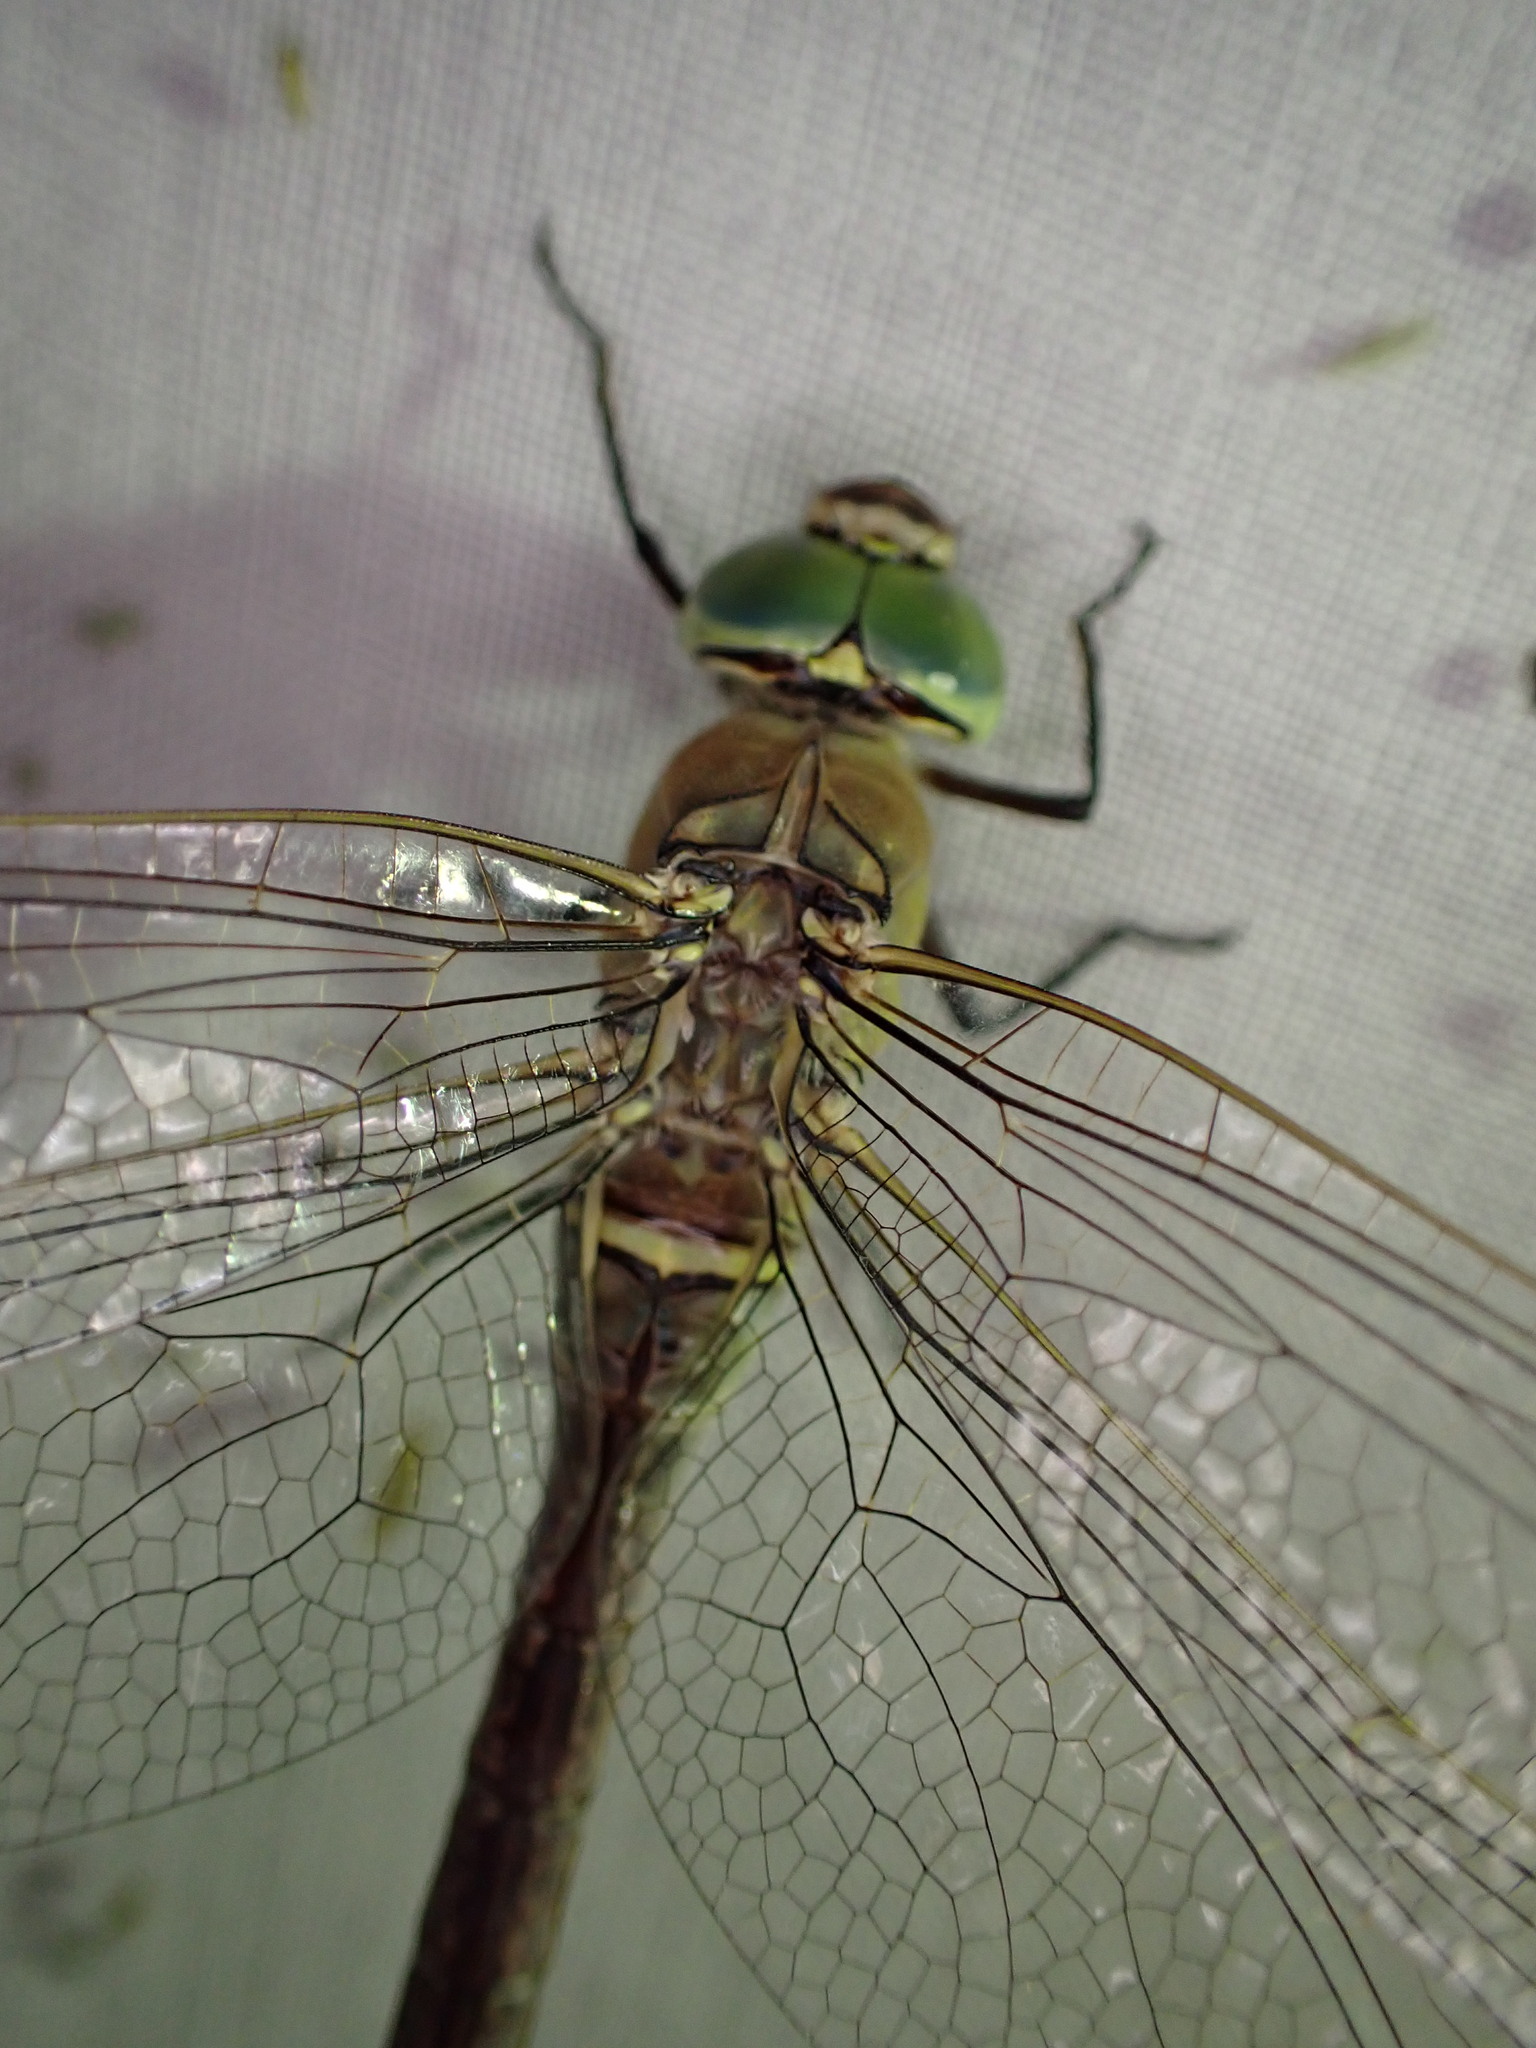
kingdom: Animalia
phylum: Arthropoda
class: Insecta
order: Odonata
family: Aeshnidae
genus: Anax
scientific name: Anax parthenope
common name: Lesser emperor
